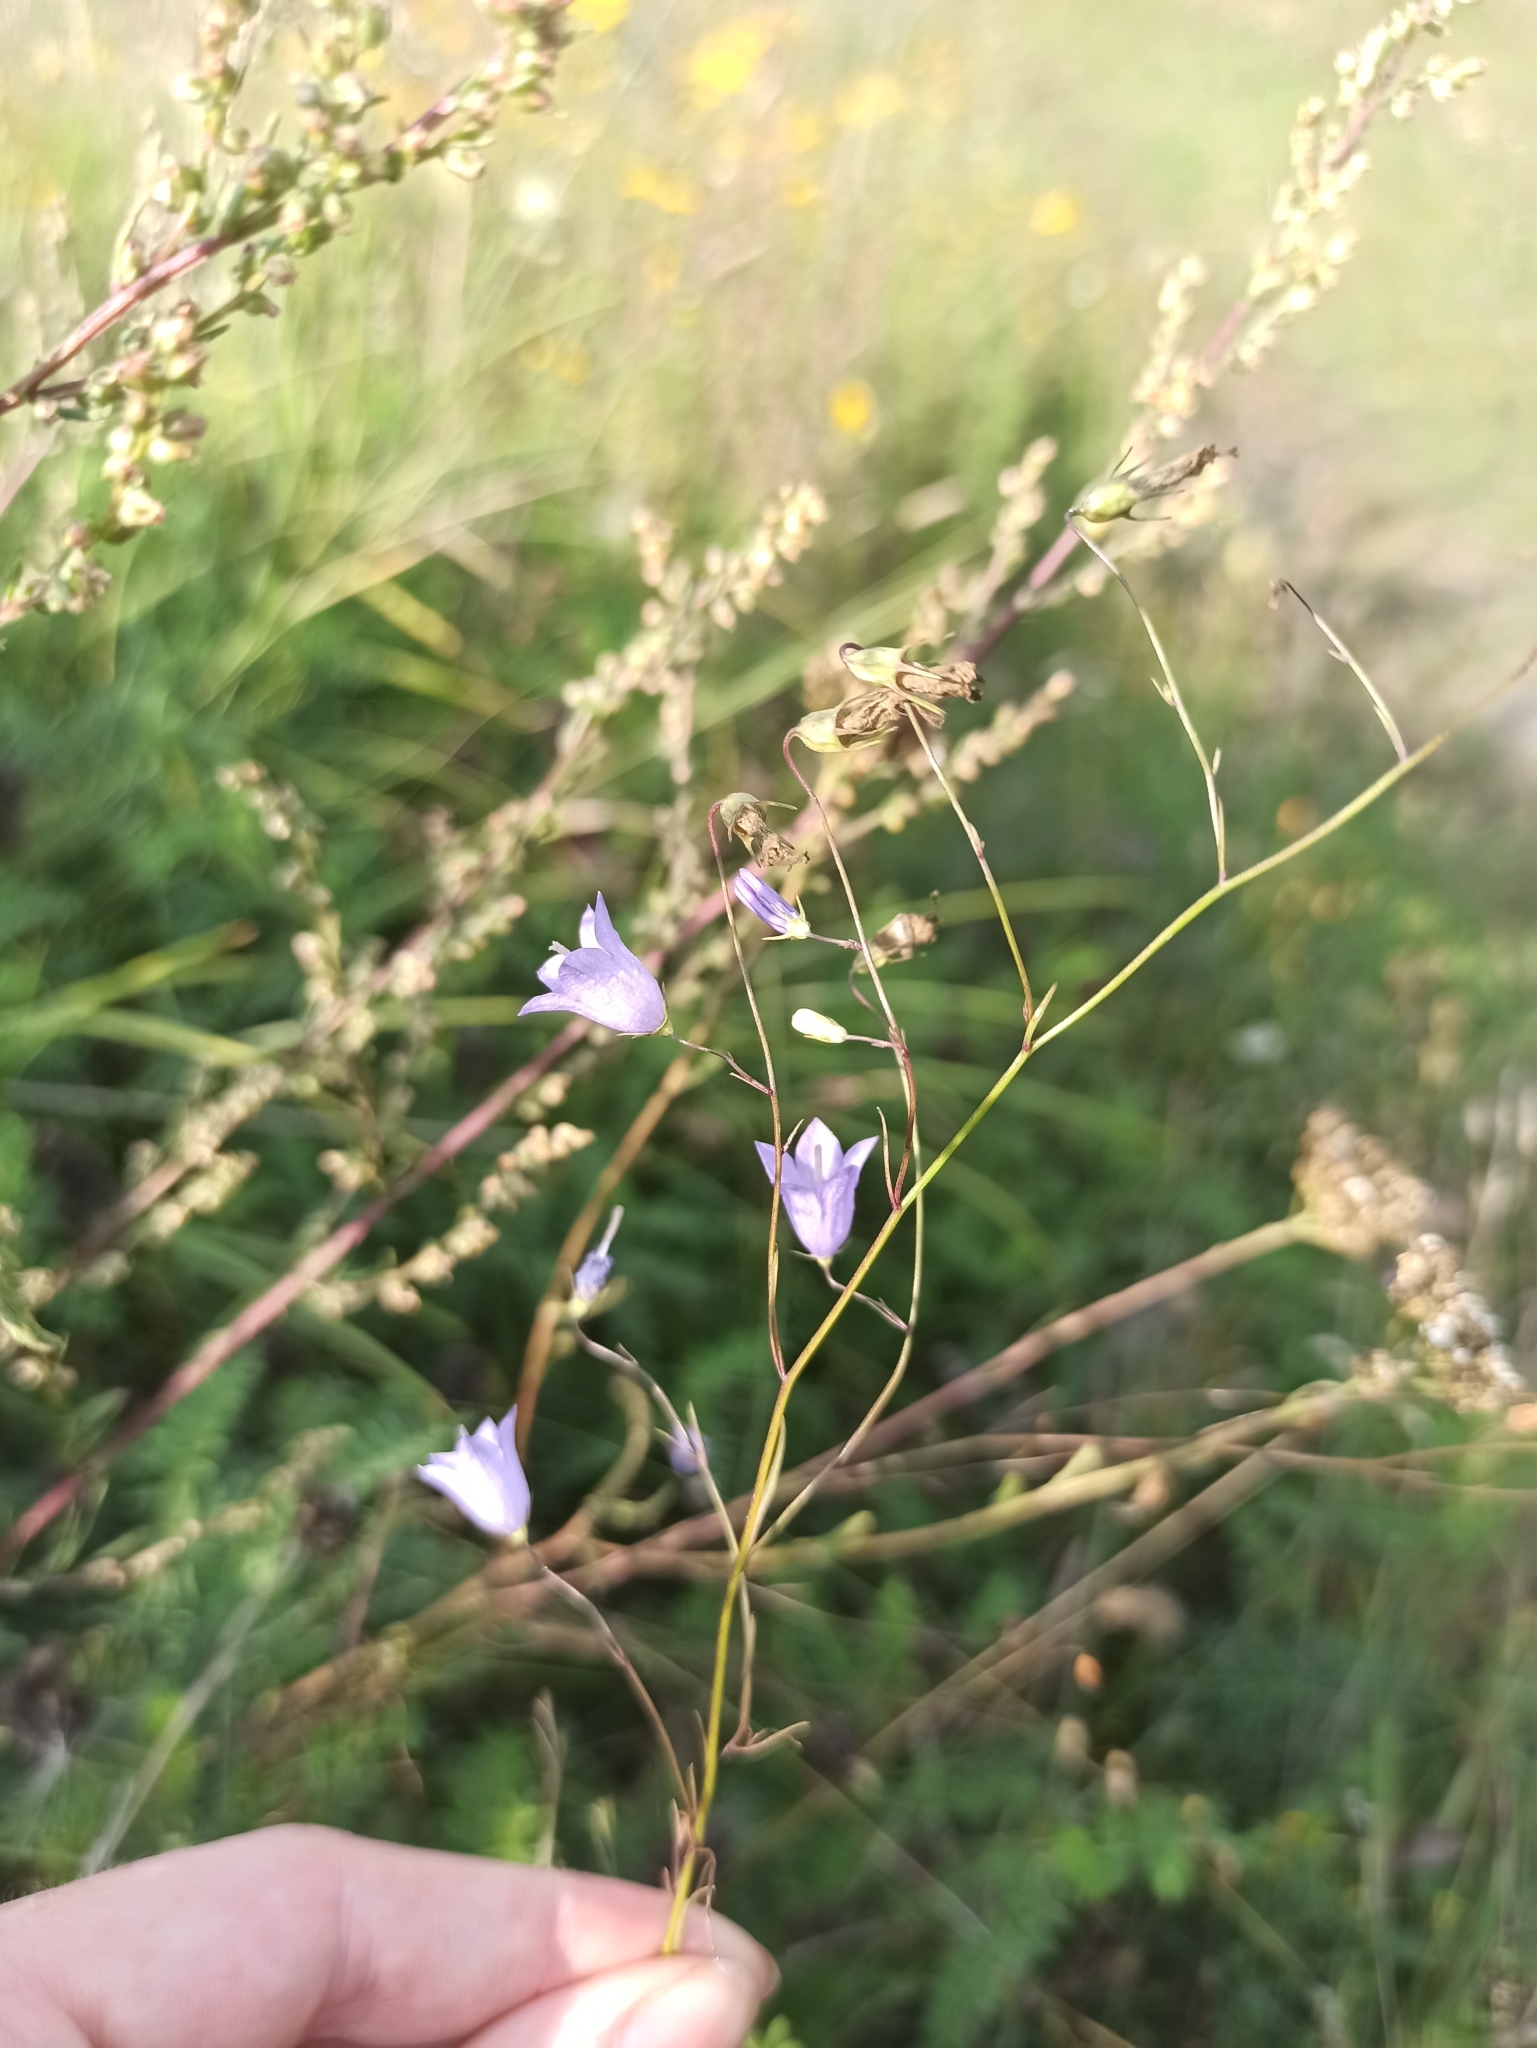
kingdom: Plantae
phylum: Tracheophyta
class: Magnoliopsida
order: Asterales
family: Campanulaceae
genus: Campanula
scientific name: Campanula rotundifolia
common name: Harebell
